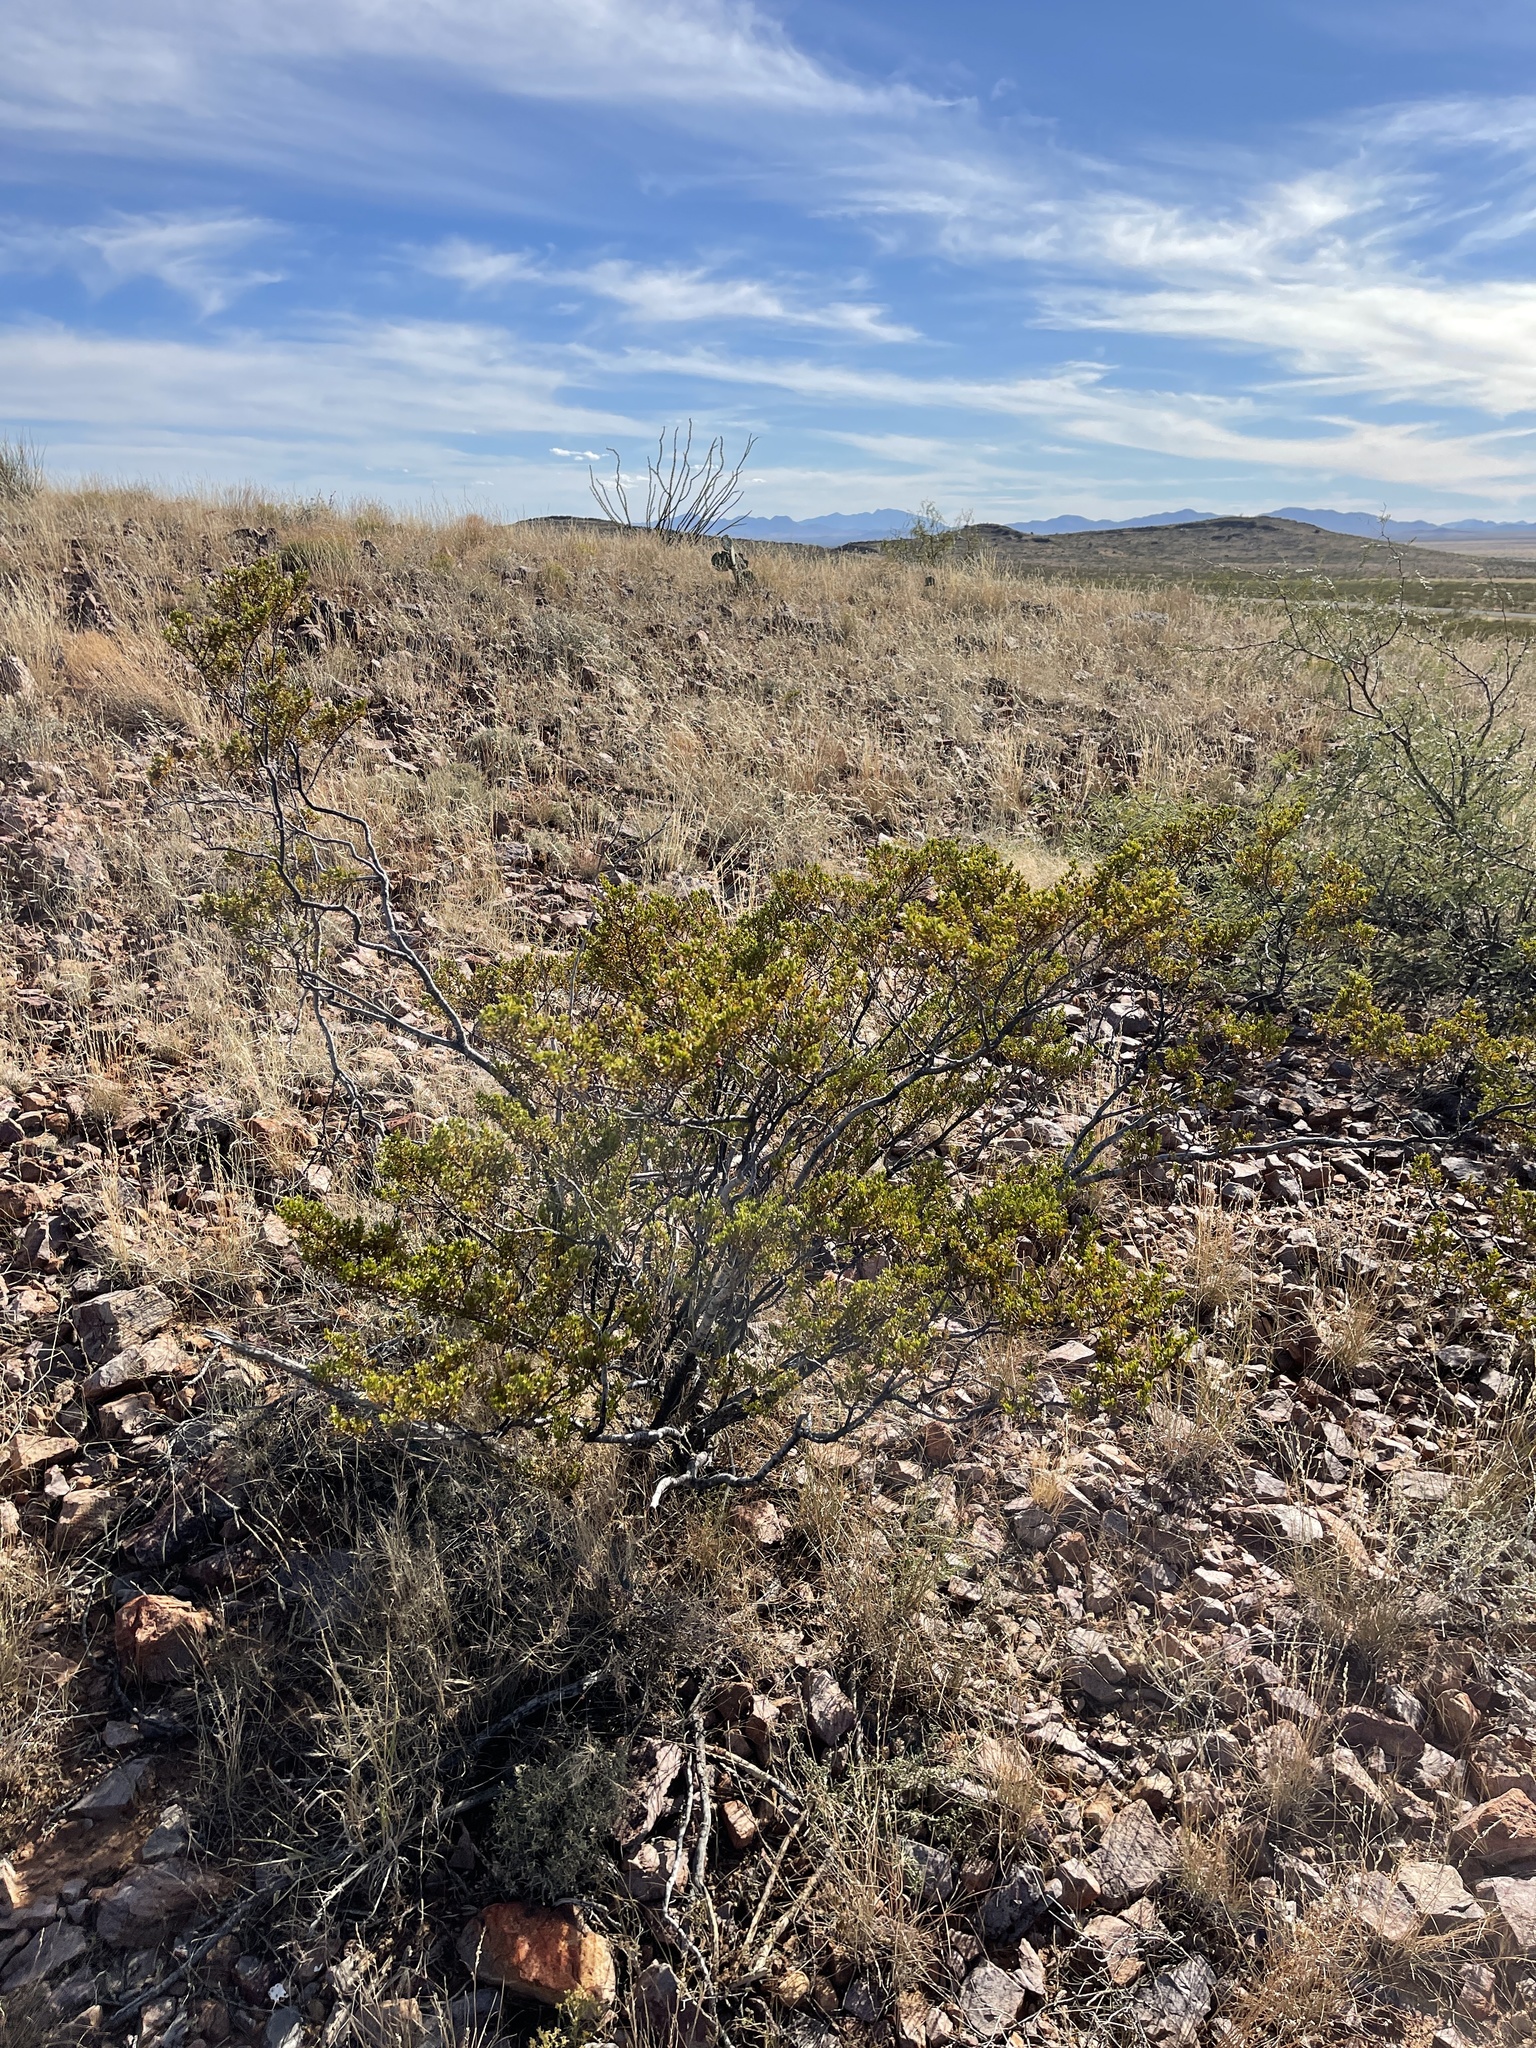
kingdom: Plantae
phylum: Tracheophyta
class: Magnoliopsida
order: Zygophyllales
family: Zygophyllaceae
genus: Larrea
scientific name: Larrea tridentata
